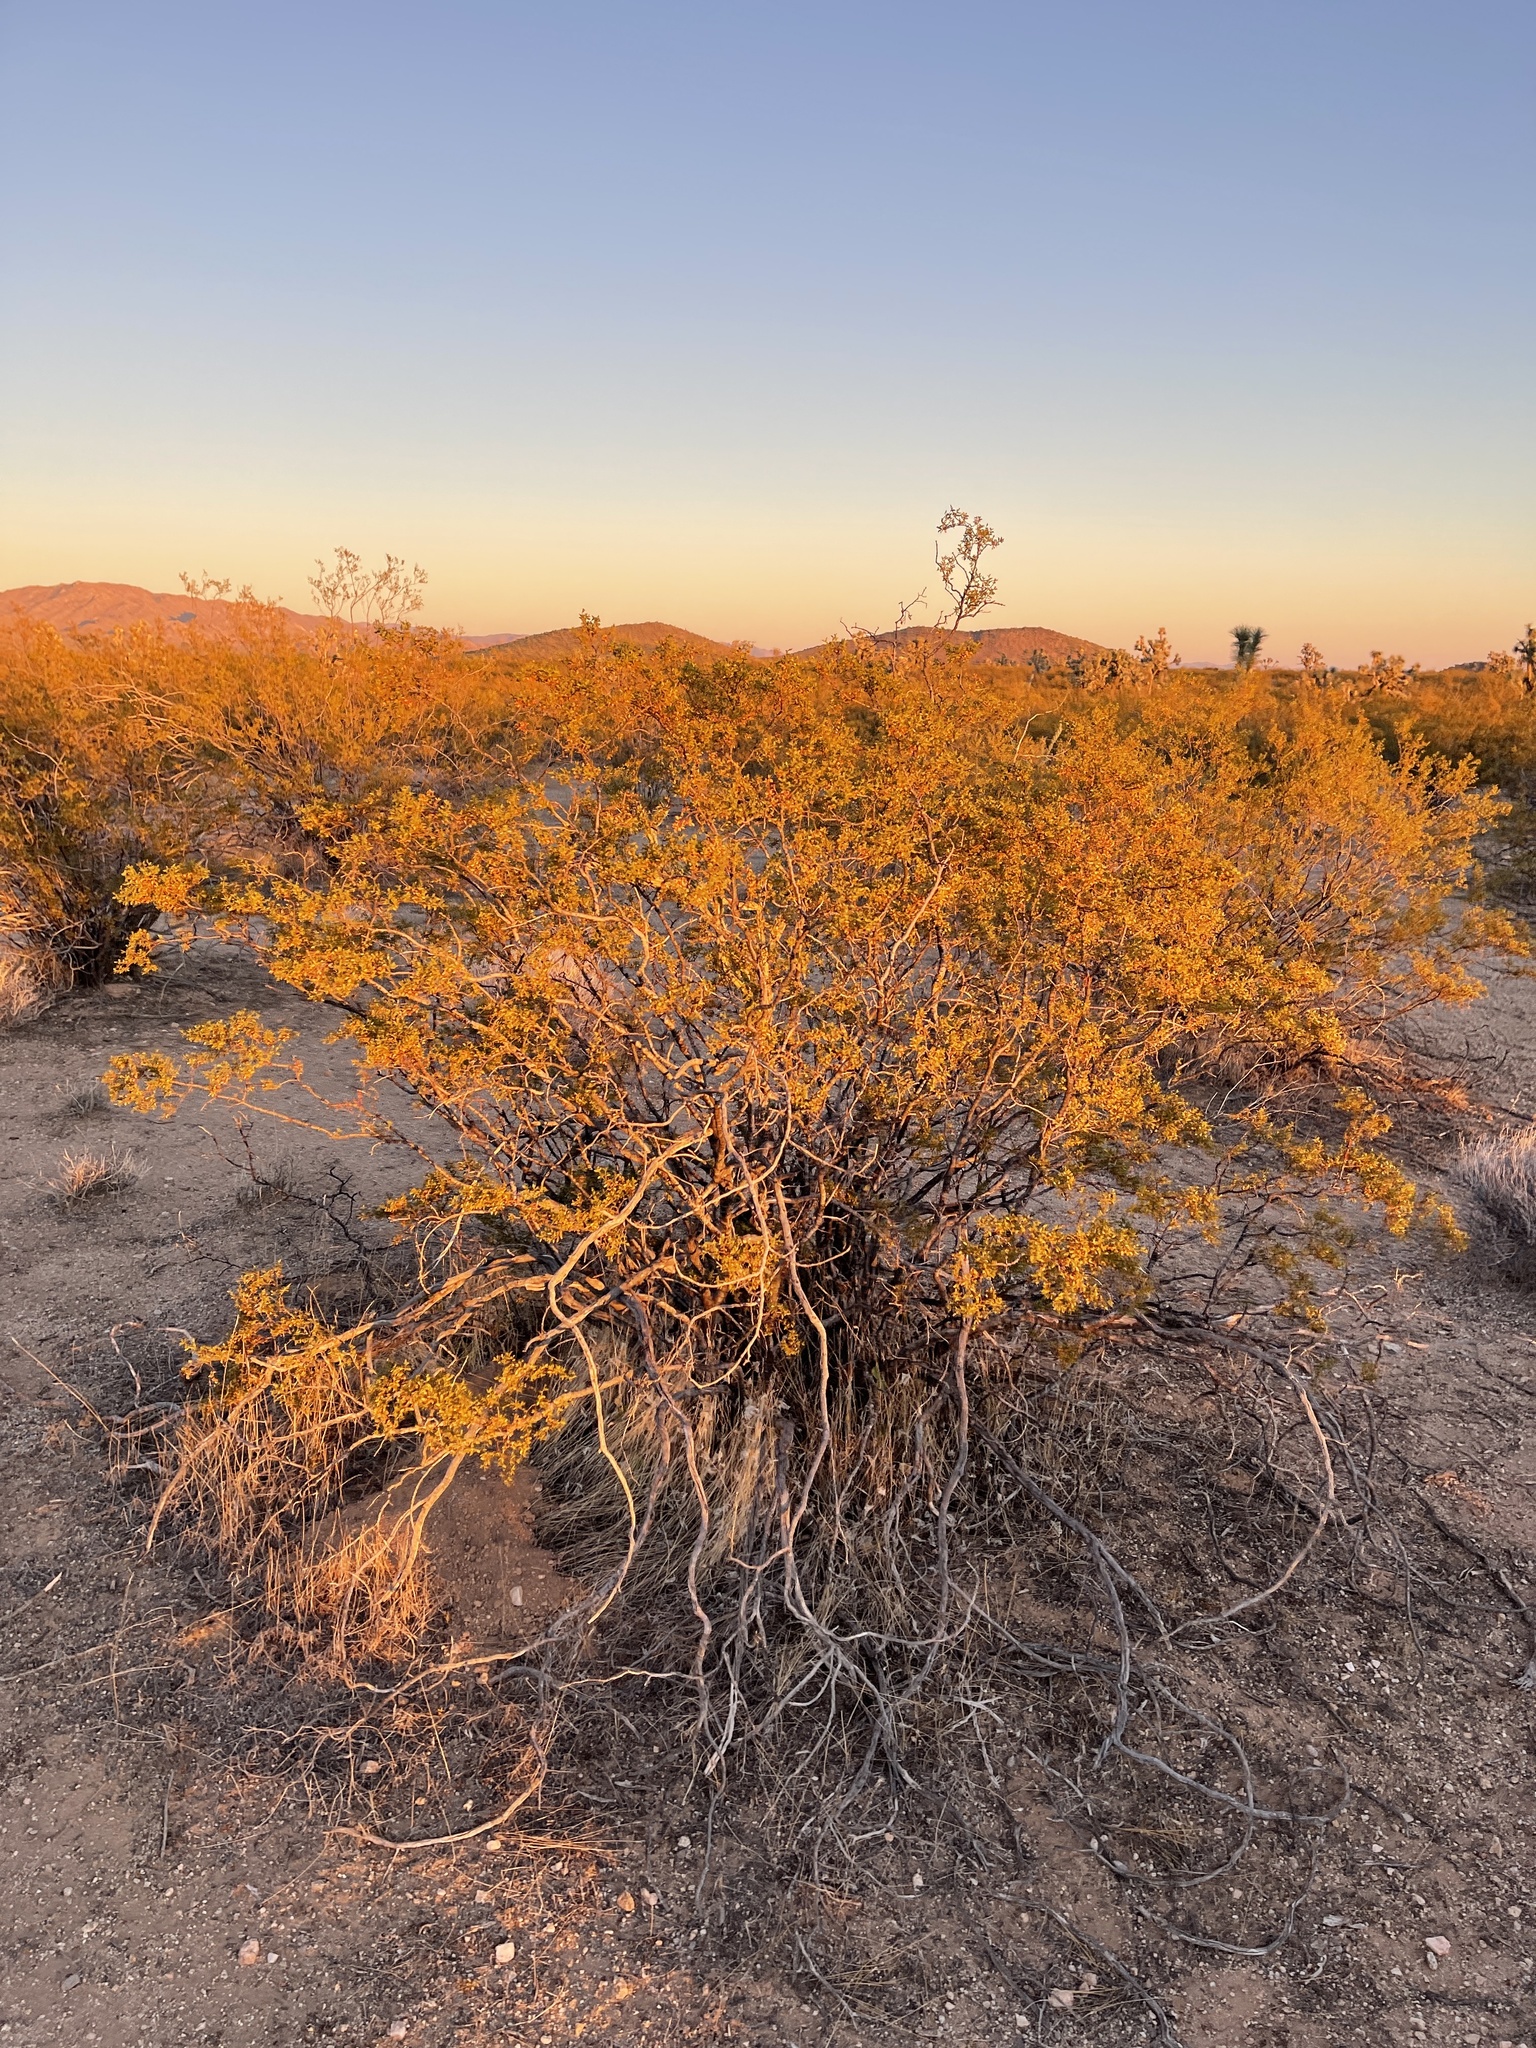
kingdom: Plantae
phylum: Tracheophyta
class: Magnoliopsida
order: Zygophyllales
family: Zygophyllaceae
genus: Larrea
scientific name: Larrea tridentata
